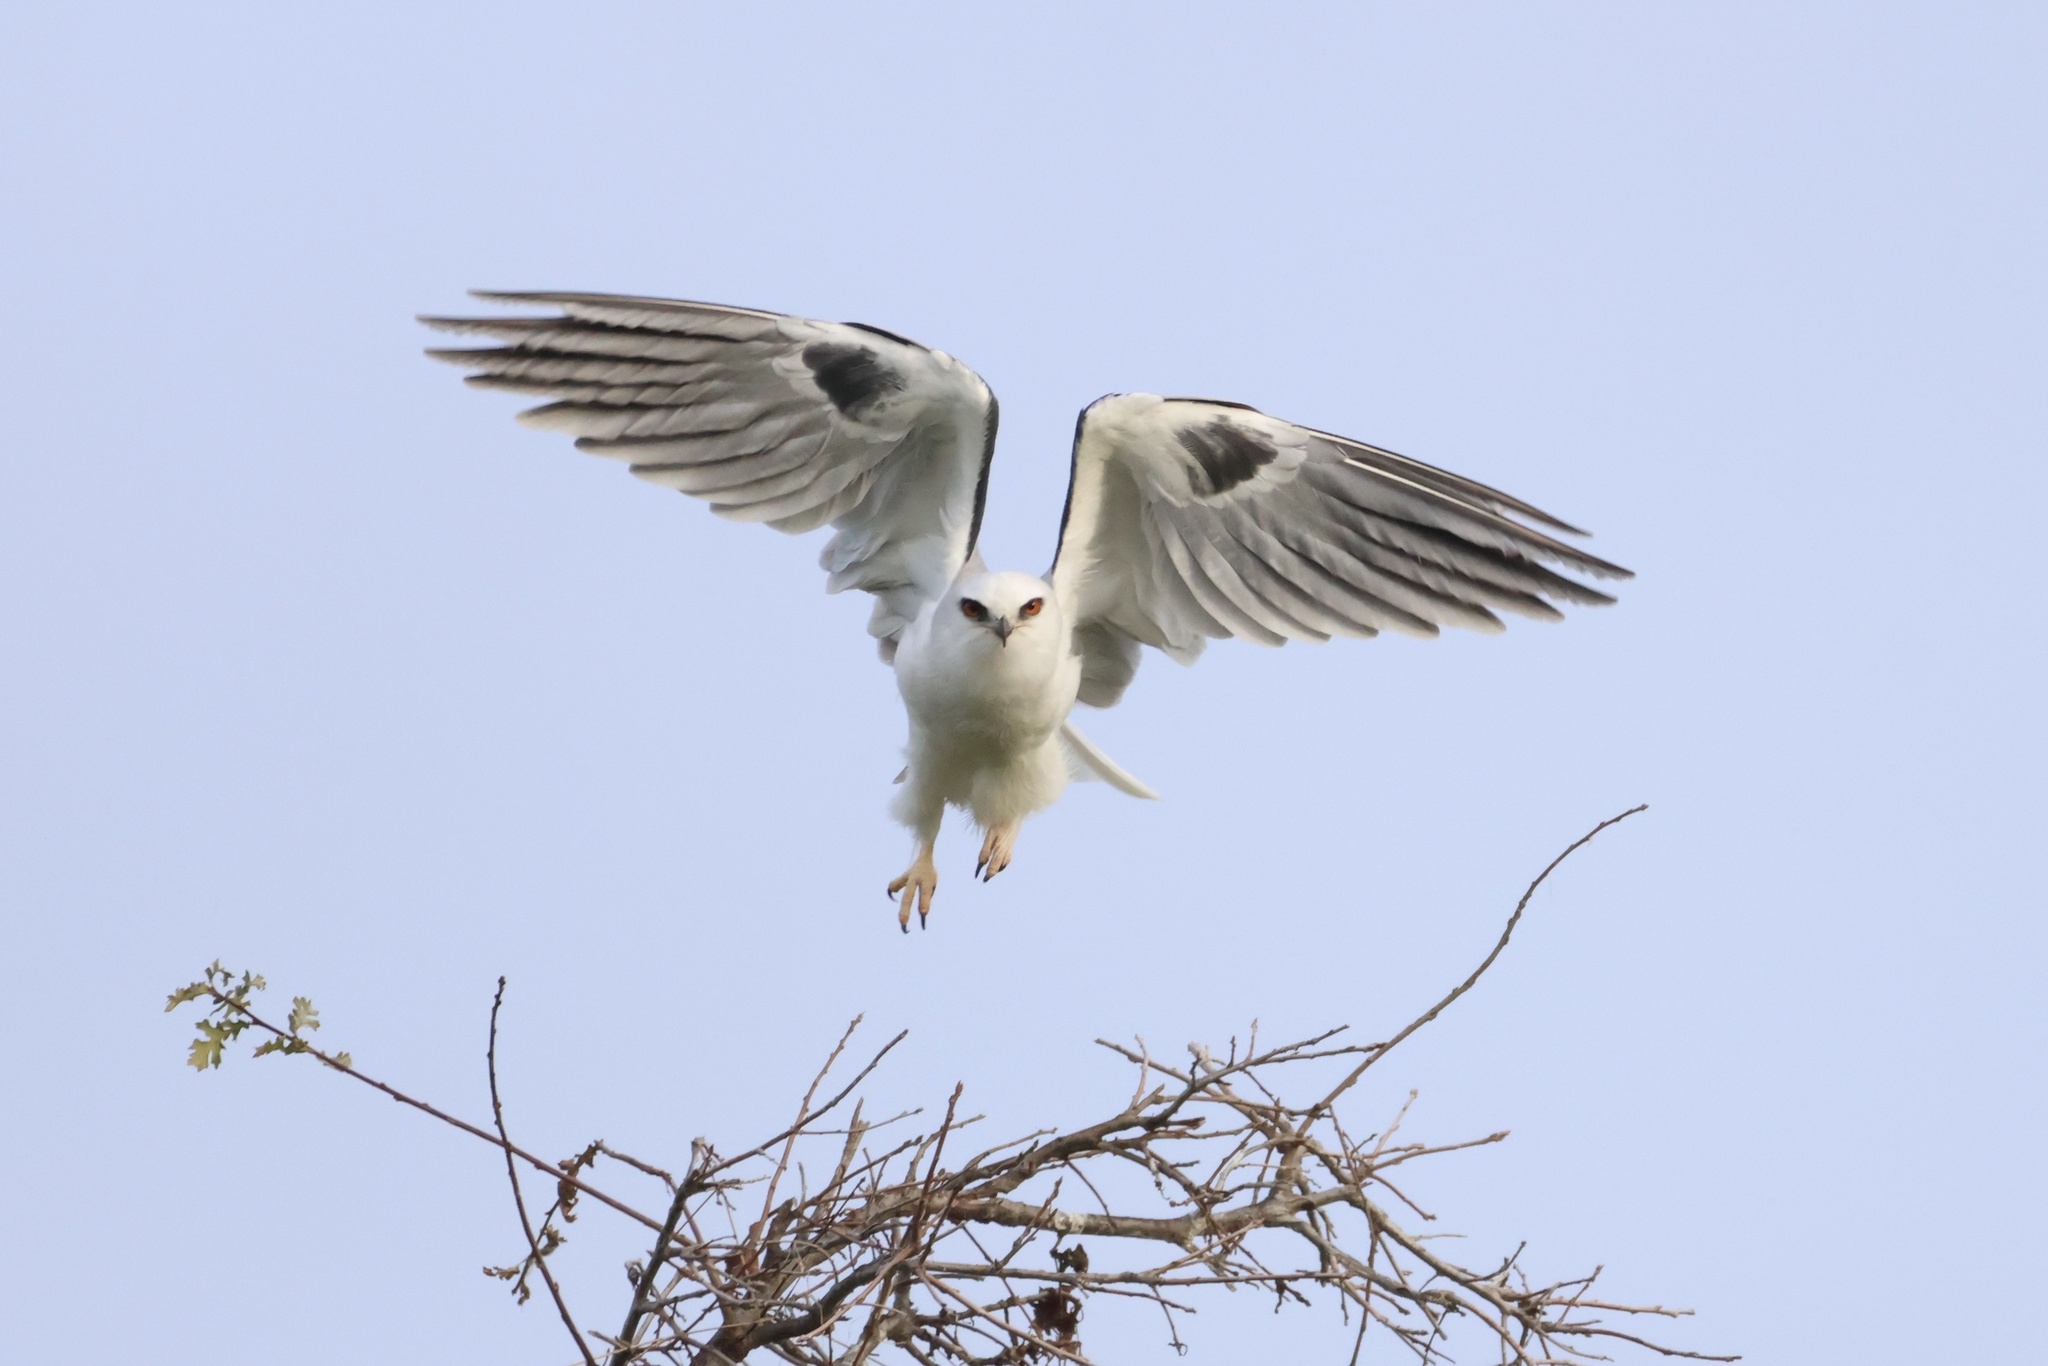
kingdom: Animalia
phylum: Chordata
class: Aves
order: Accipitriformes
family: Accipitridae
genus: Elanus
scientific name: Elanus leucurus
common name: White-tailed kite
